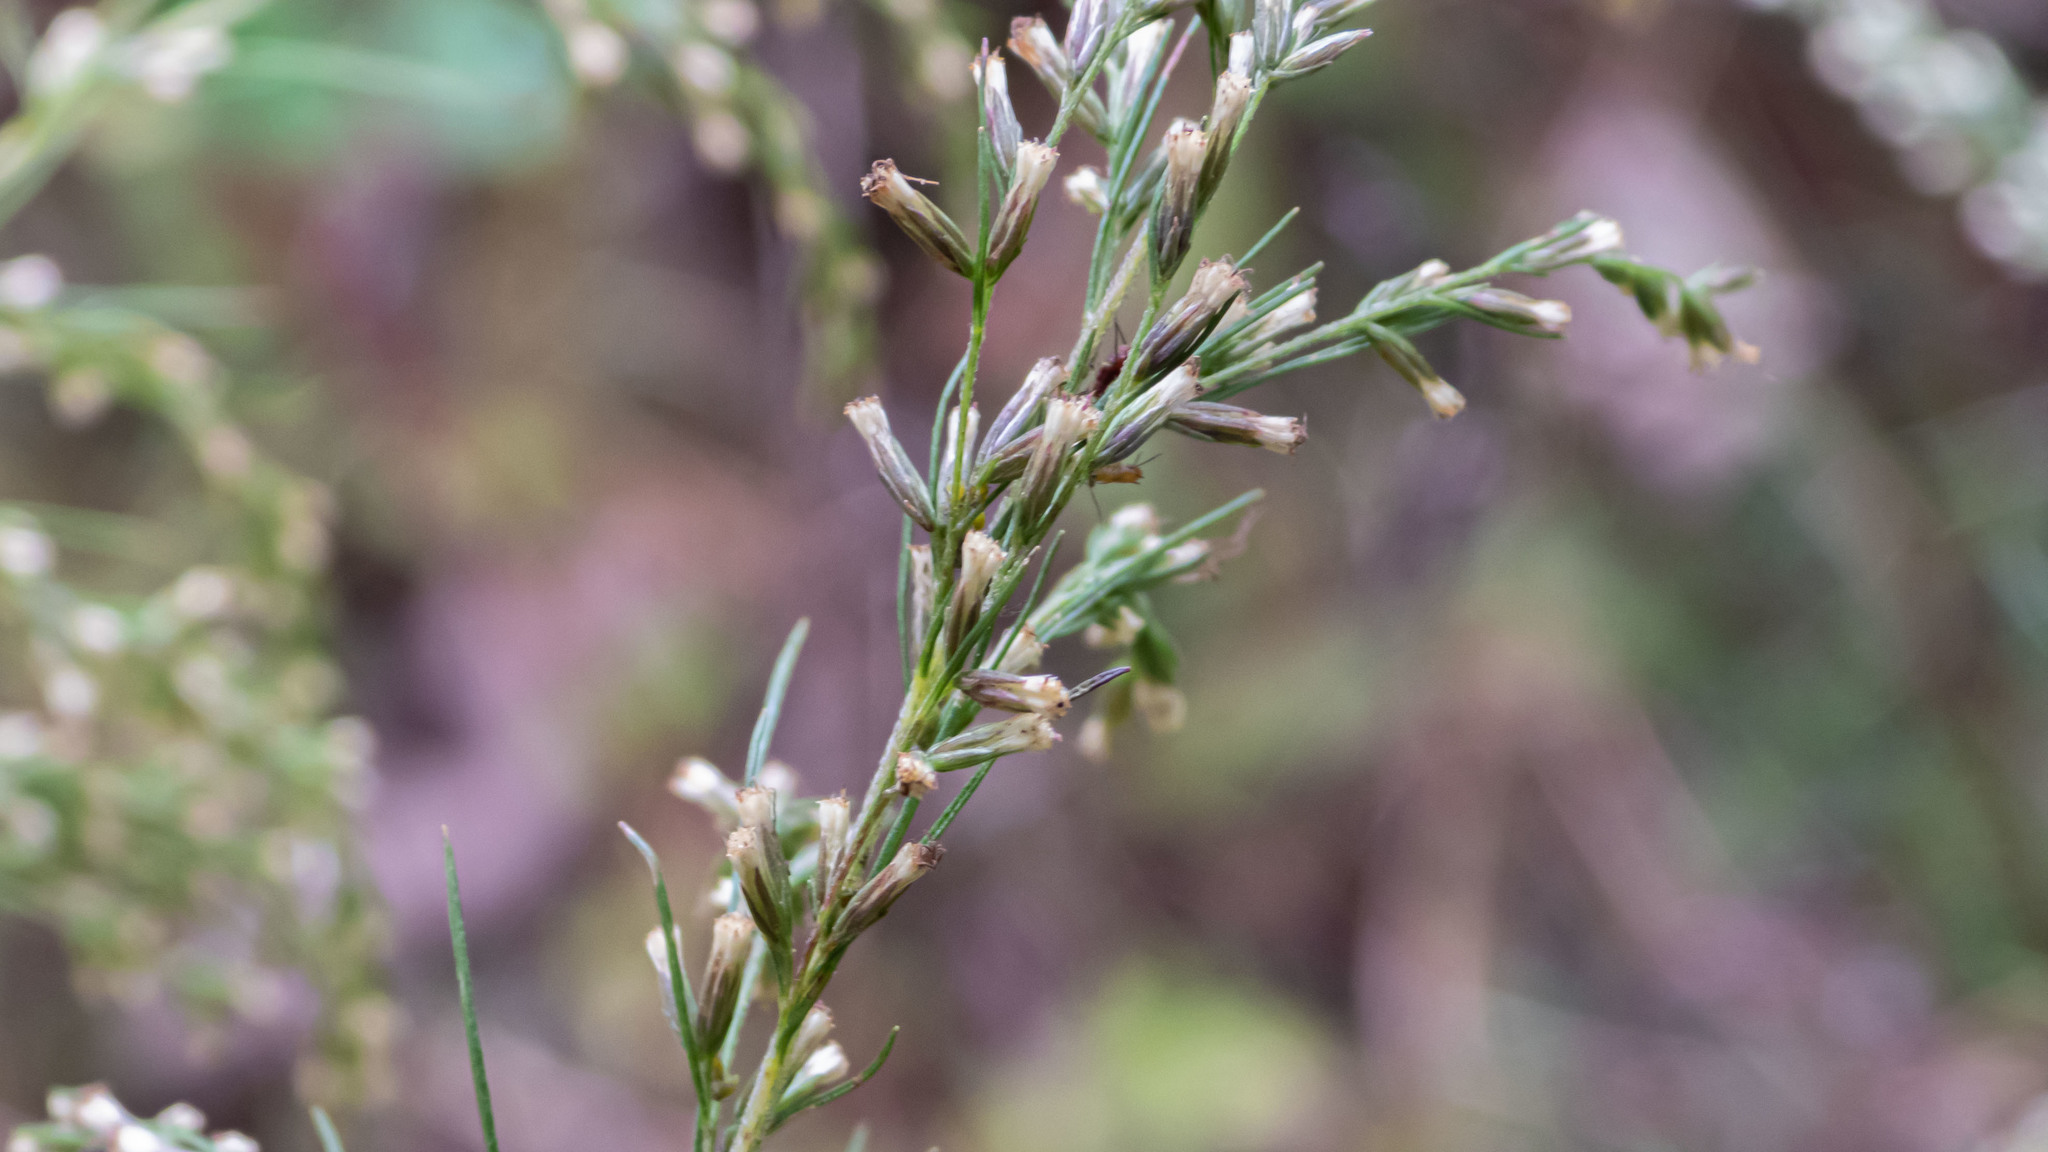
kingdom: Plantae
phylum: Tracheophyta
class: Magnoliopsida
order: Asterales
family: Asteraceae
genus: Eupatorium
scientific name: Eupatorium capillifolium
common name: Dog-fennel
